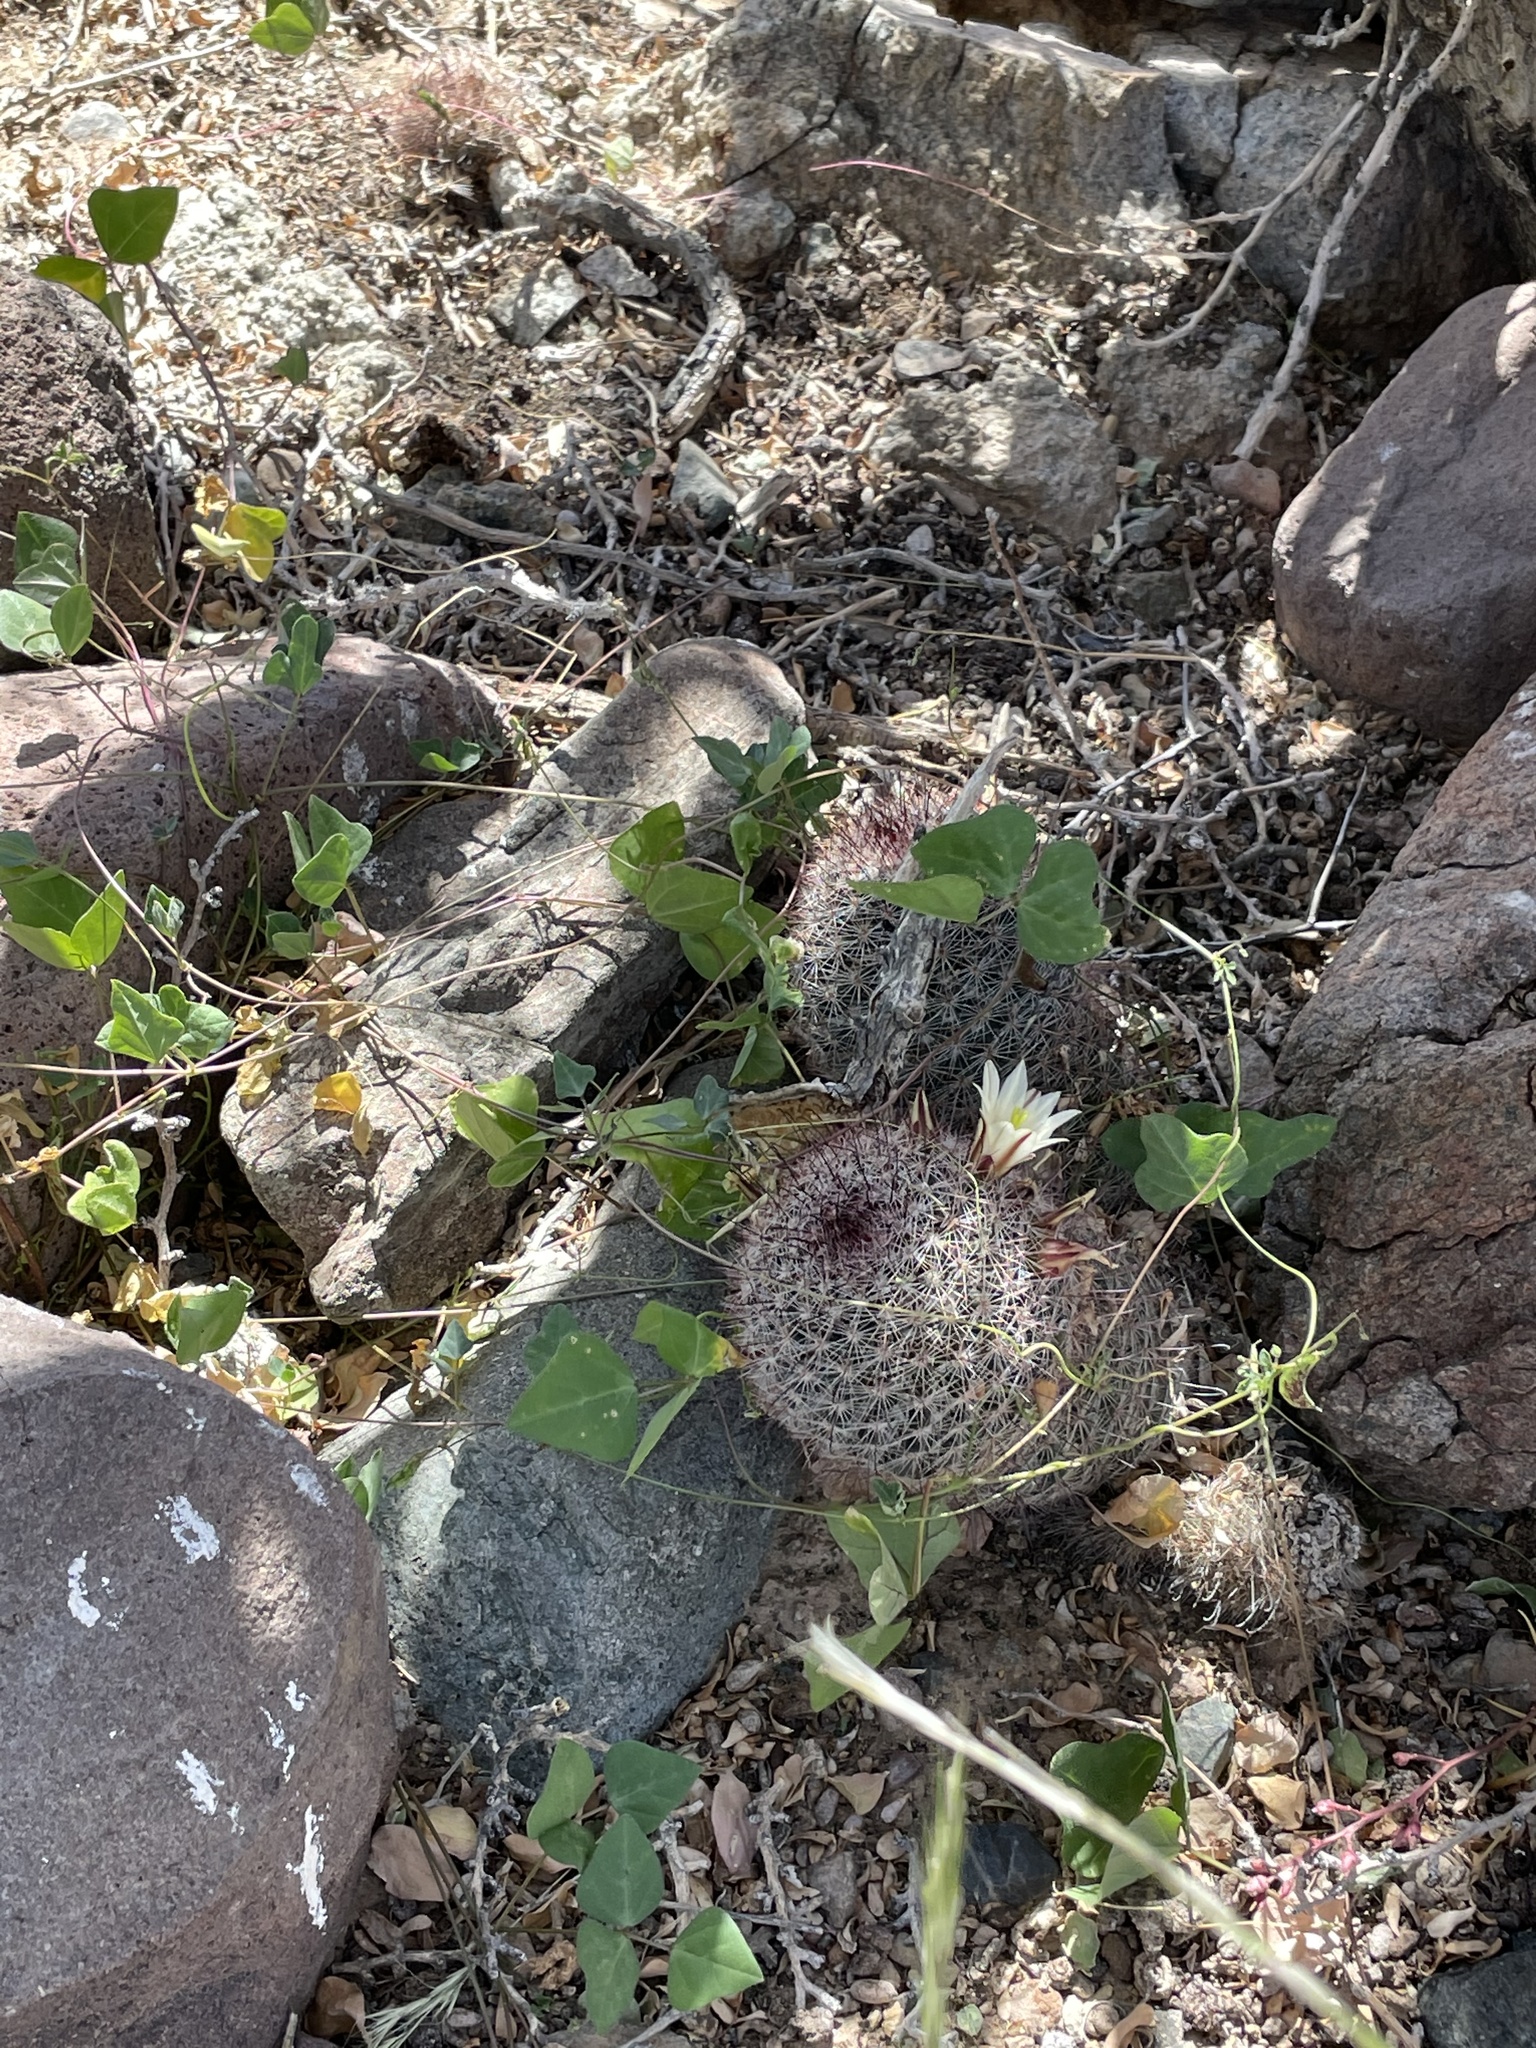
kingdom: Plantae
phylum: Tracheophyta
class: Magnoliopsida
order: Caryophyllales
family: Cactaceae
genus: Cochemiea
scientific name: Cochemiea dioica
